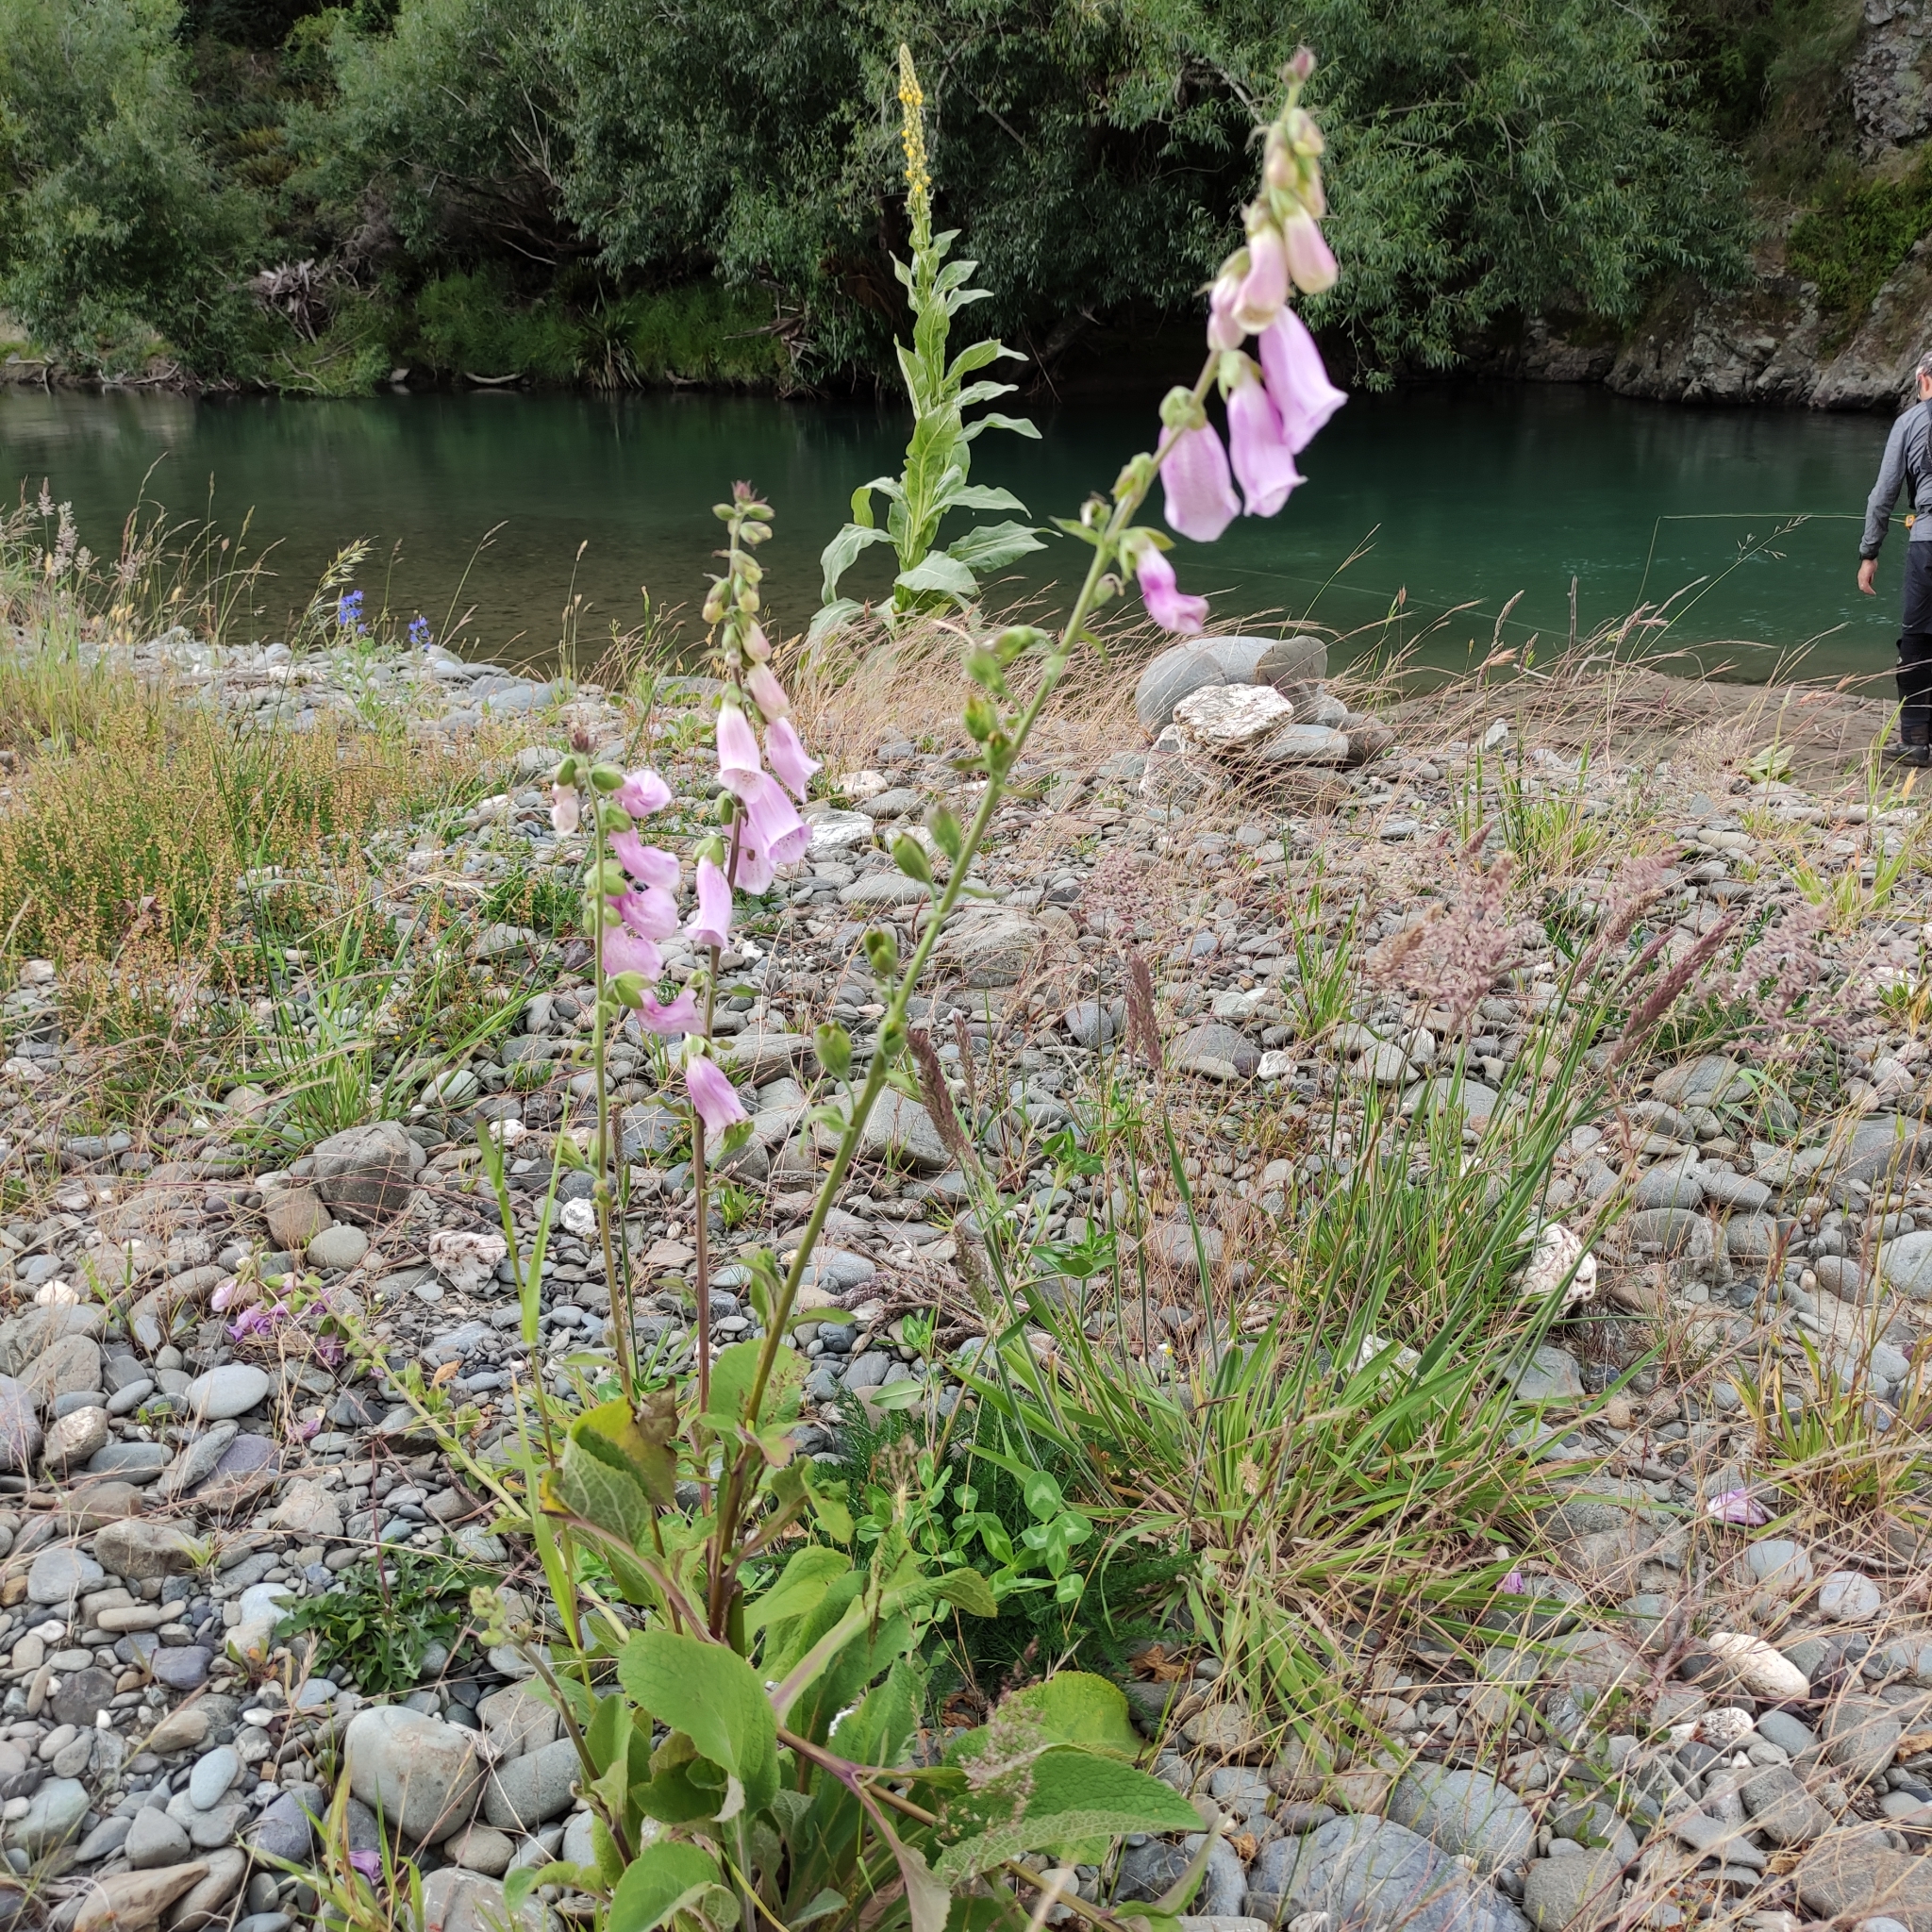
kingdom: Plantae
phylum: Tracheophyta
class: Magnoliopsida
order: Lamiales
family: Plantaginaceae
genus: Digitalis
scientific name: Digitalis purpurea
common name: Foxglove
